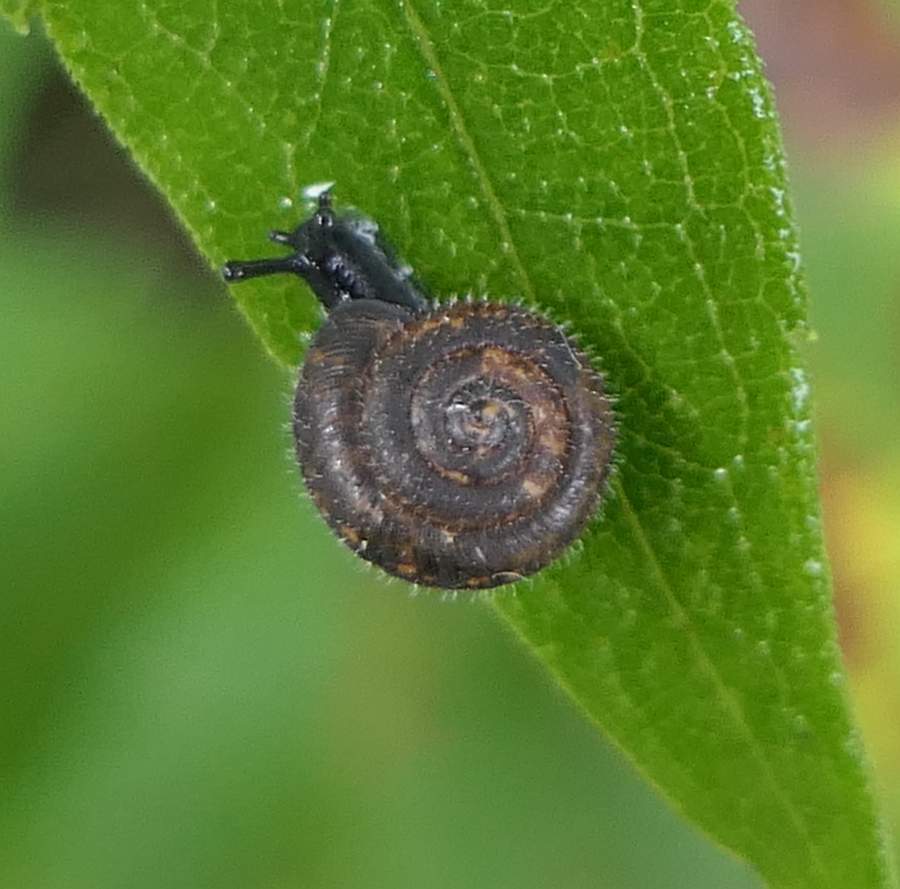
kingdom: Animalia
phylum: Mollusca
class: Gastropoda
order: Stylommatophora
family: Hygromiidae
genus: Trochulus
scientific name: Trochulus hispidus
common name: Hairy snail
